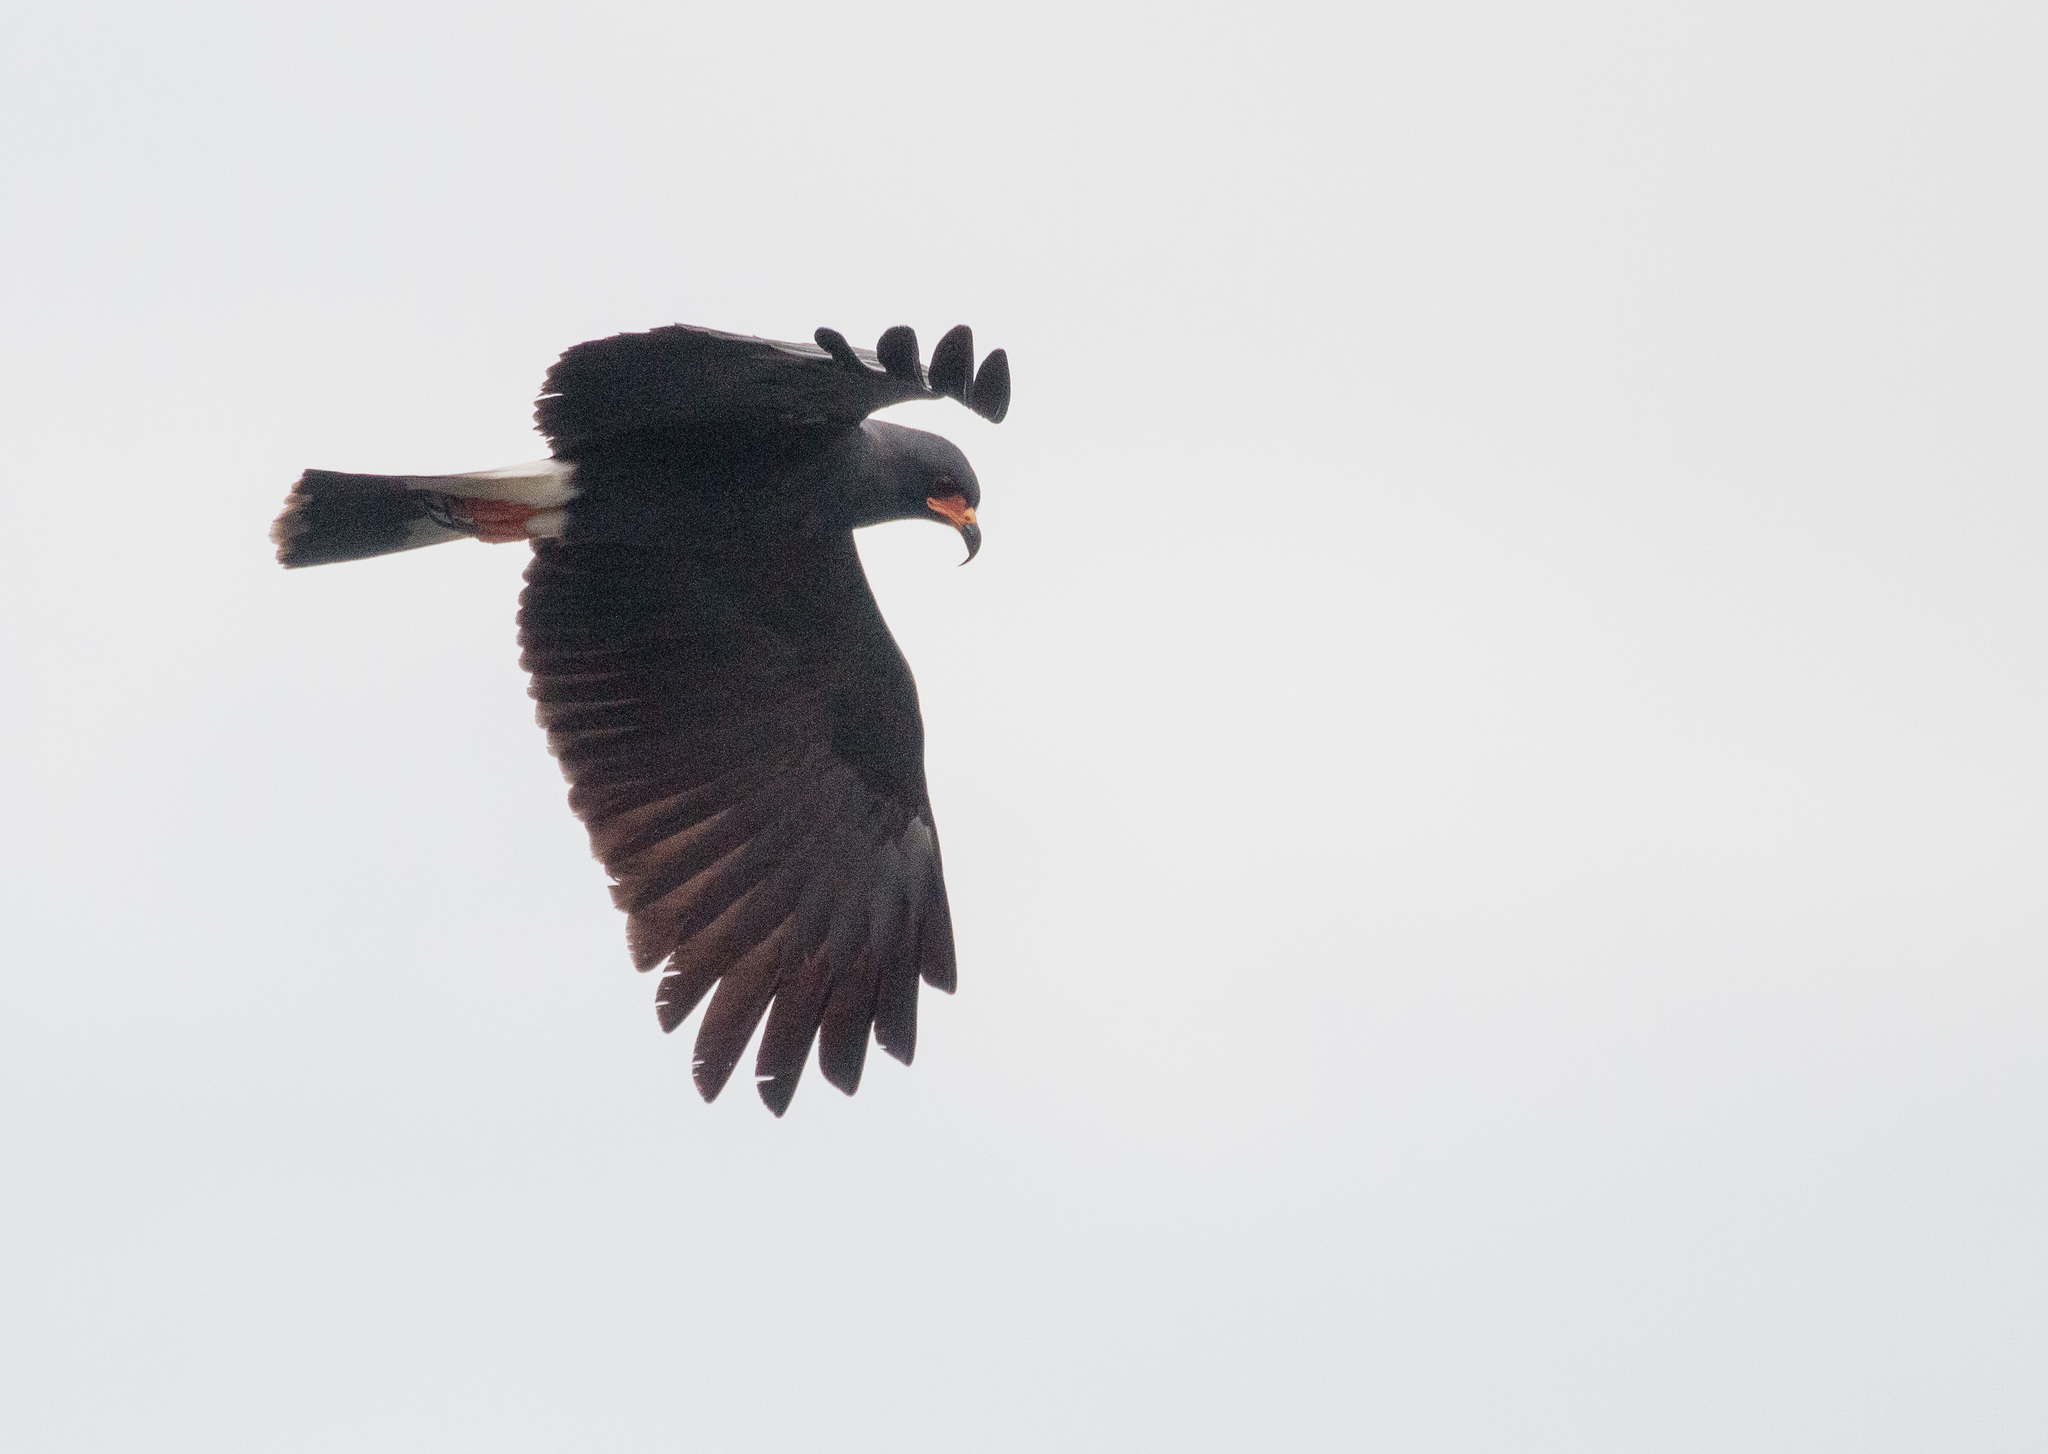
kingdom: Animalia
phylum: Chordata
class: Aves
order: Accipitriformes
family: Accipitridae
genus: Rostrhamus
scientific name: Rostrhamus sociabilis
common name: Snail kite
